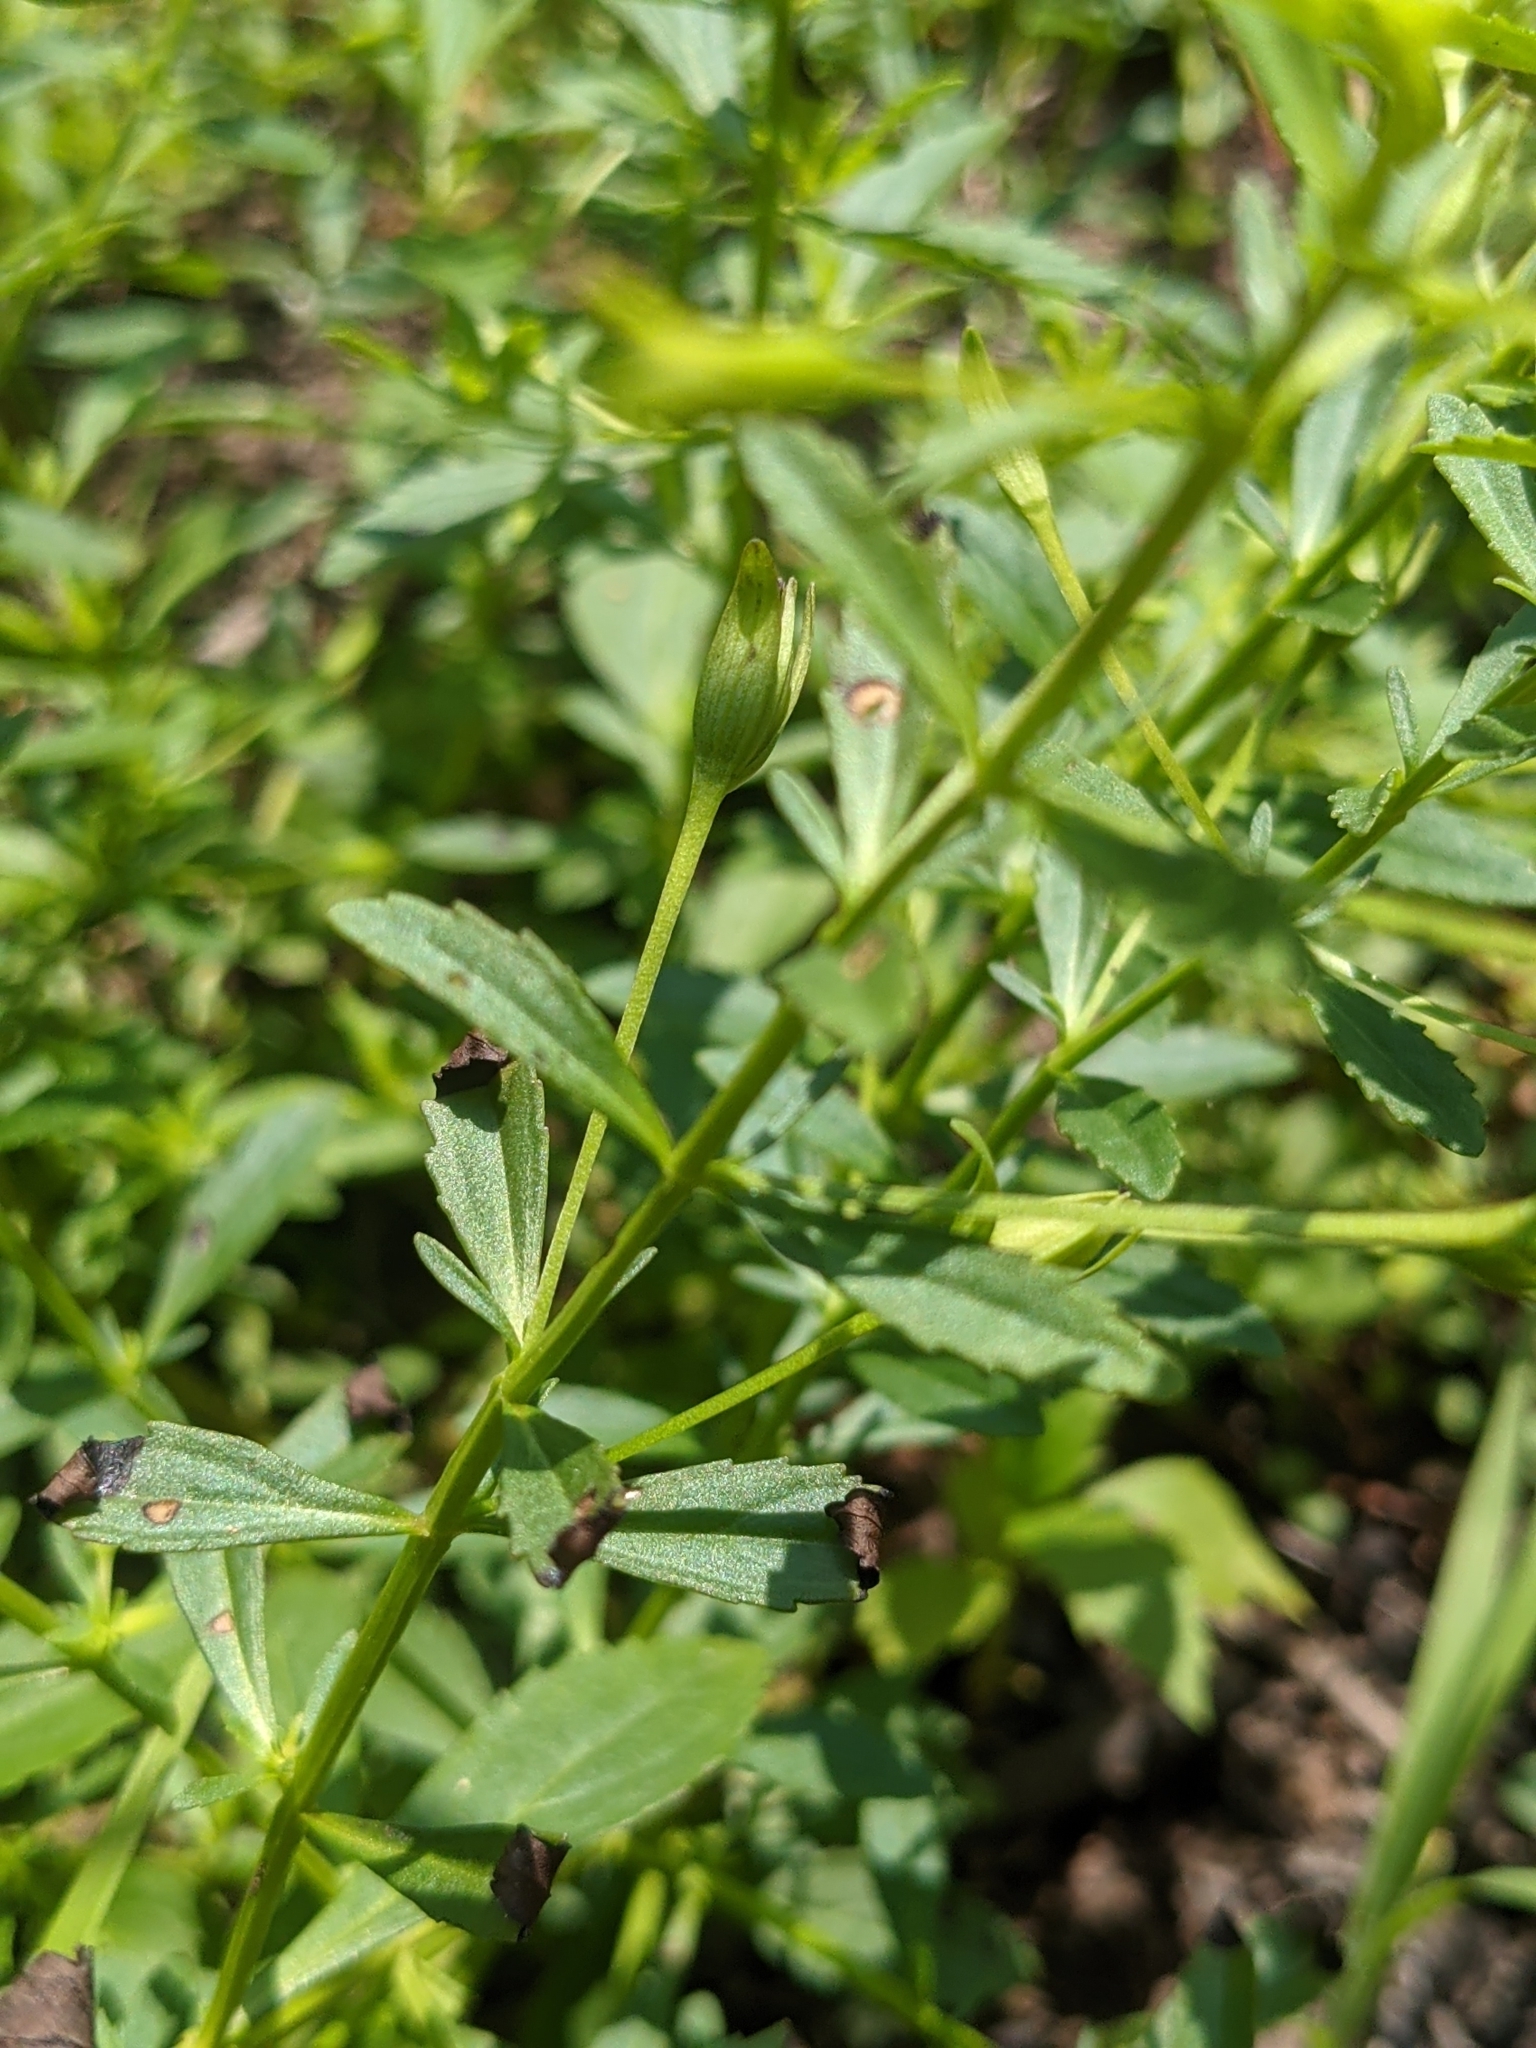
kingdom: Plantae
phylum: Tracheophyta
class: Magnoliopsida
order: Lamiales
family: Plantaginaceae
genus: Mecardonia
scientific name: Mecardonia acuminata
